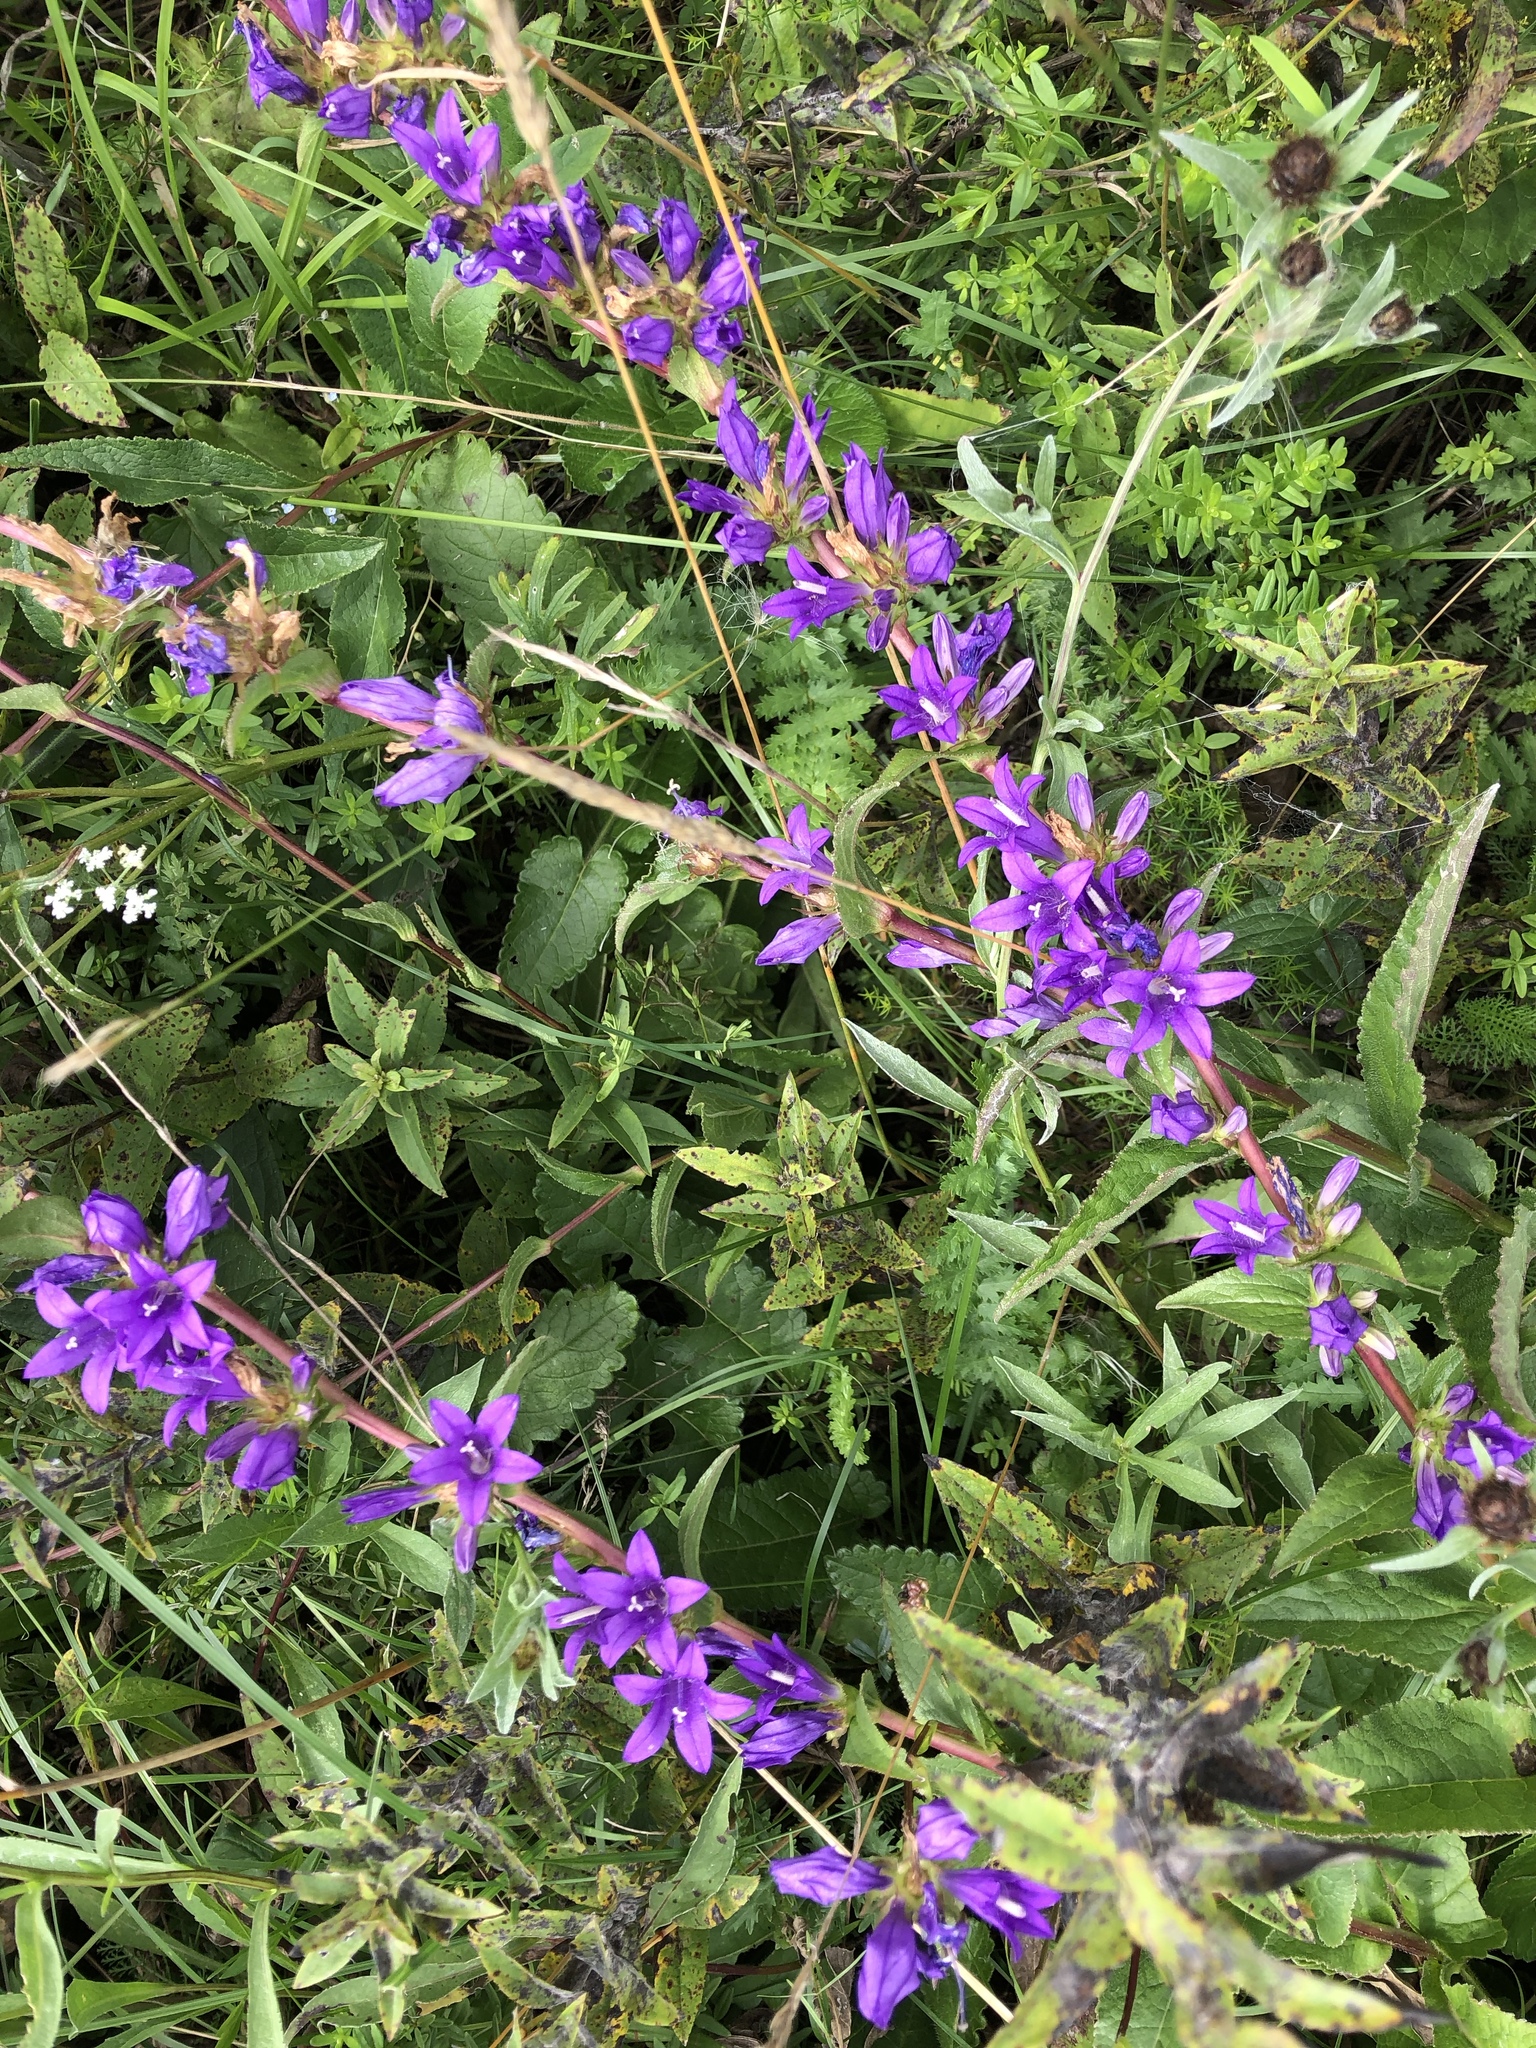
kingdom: Plantae
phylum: Tracheophyta
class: Magnoliopsida
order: Asterales
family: Campanulaceae
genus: Campanula
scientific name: Campanula glomerata
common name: Clustered bellflower
